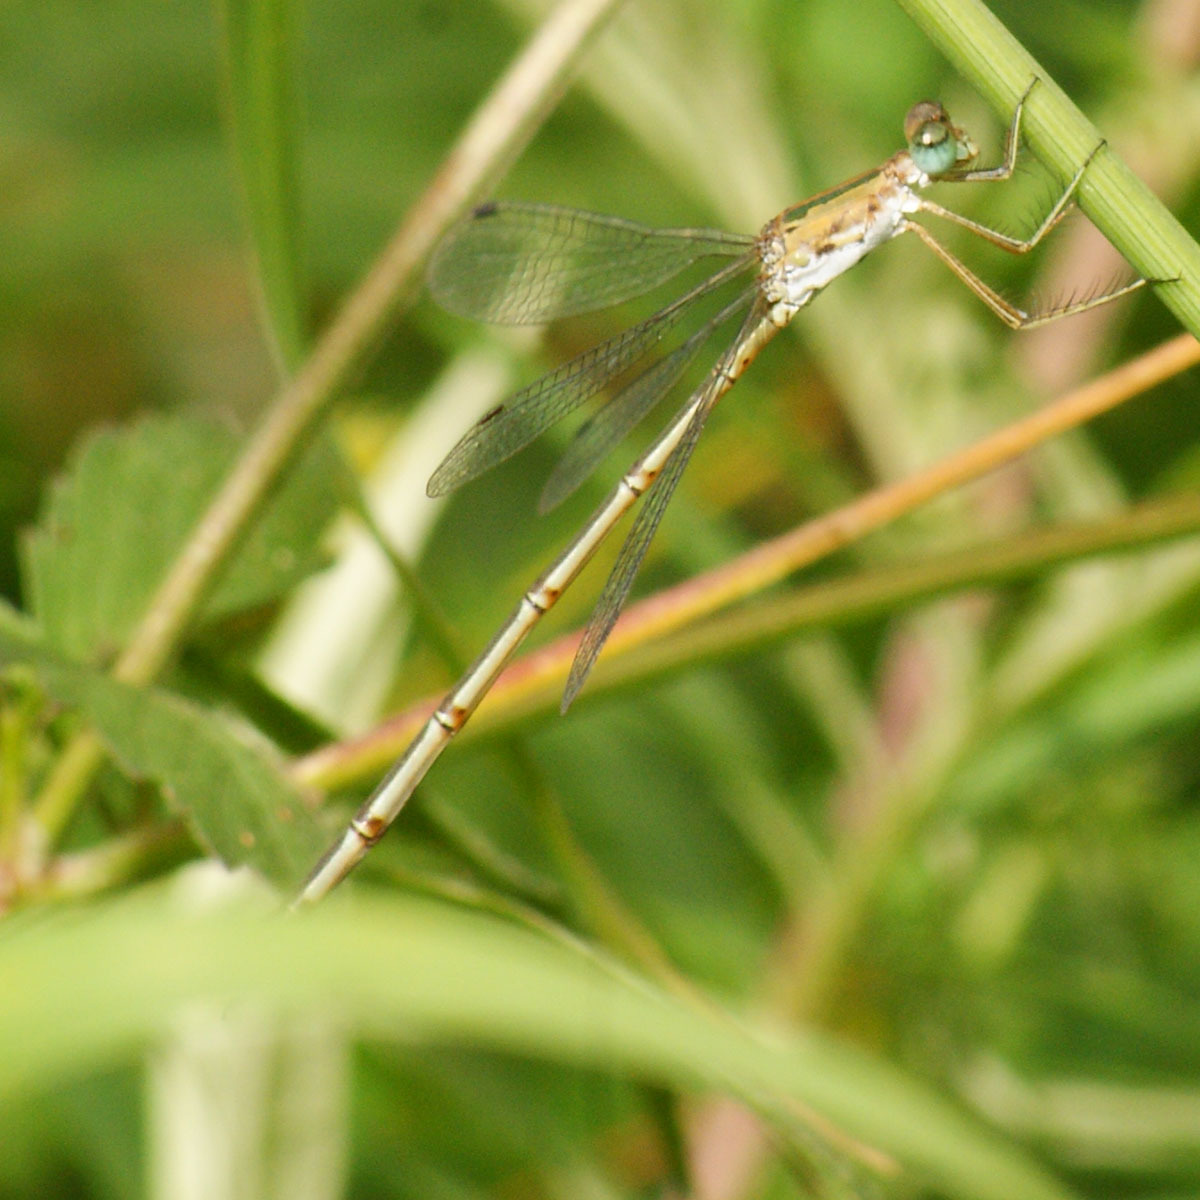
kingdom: Animalia
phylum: Arthropoda
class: Insecta
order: Odonata
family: Lestidae
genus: Lestes
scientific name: Lestes elatus
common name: Emerald spreadwing
